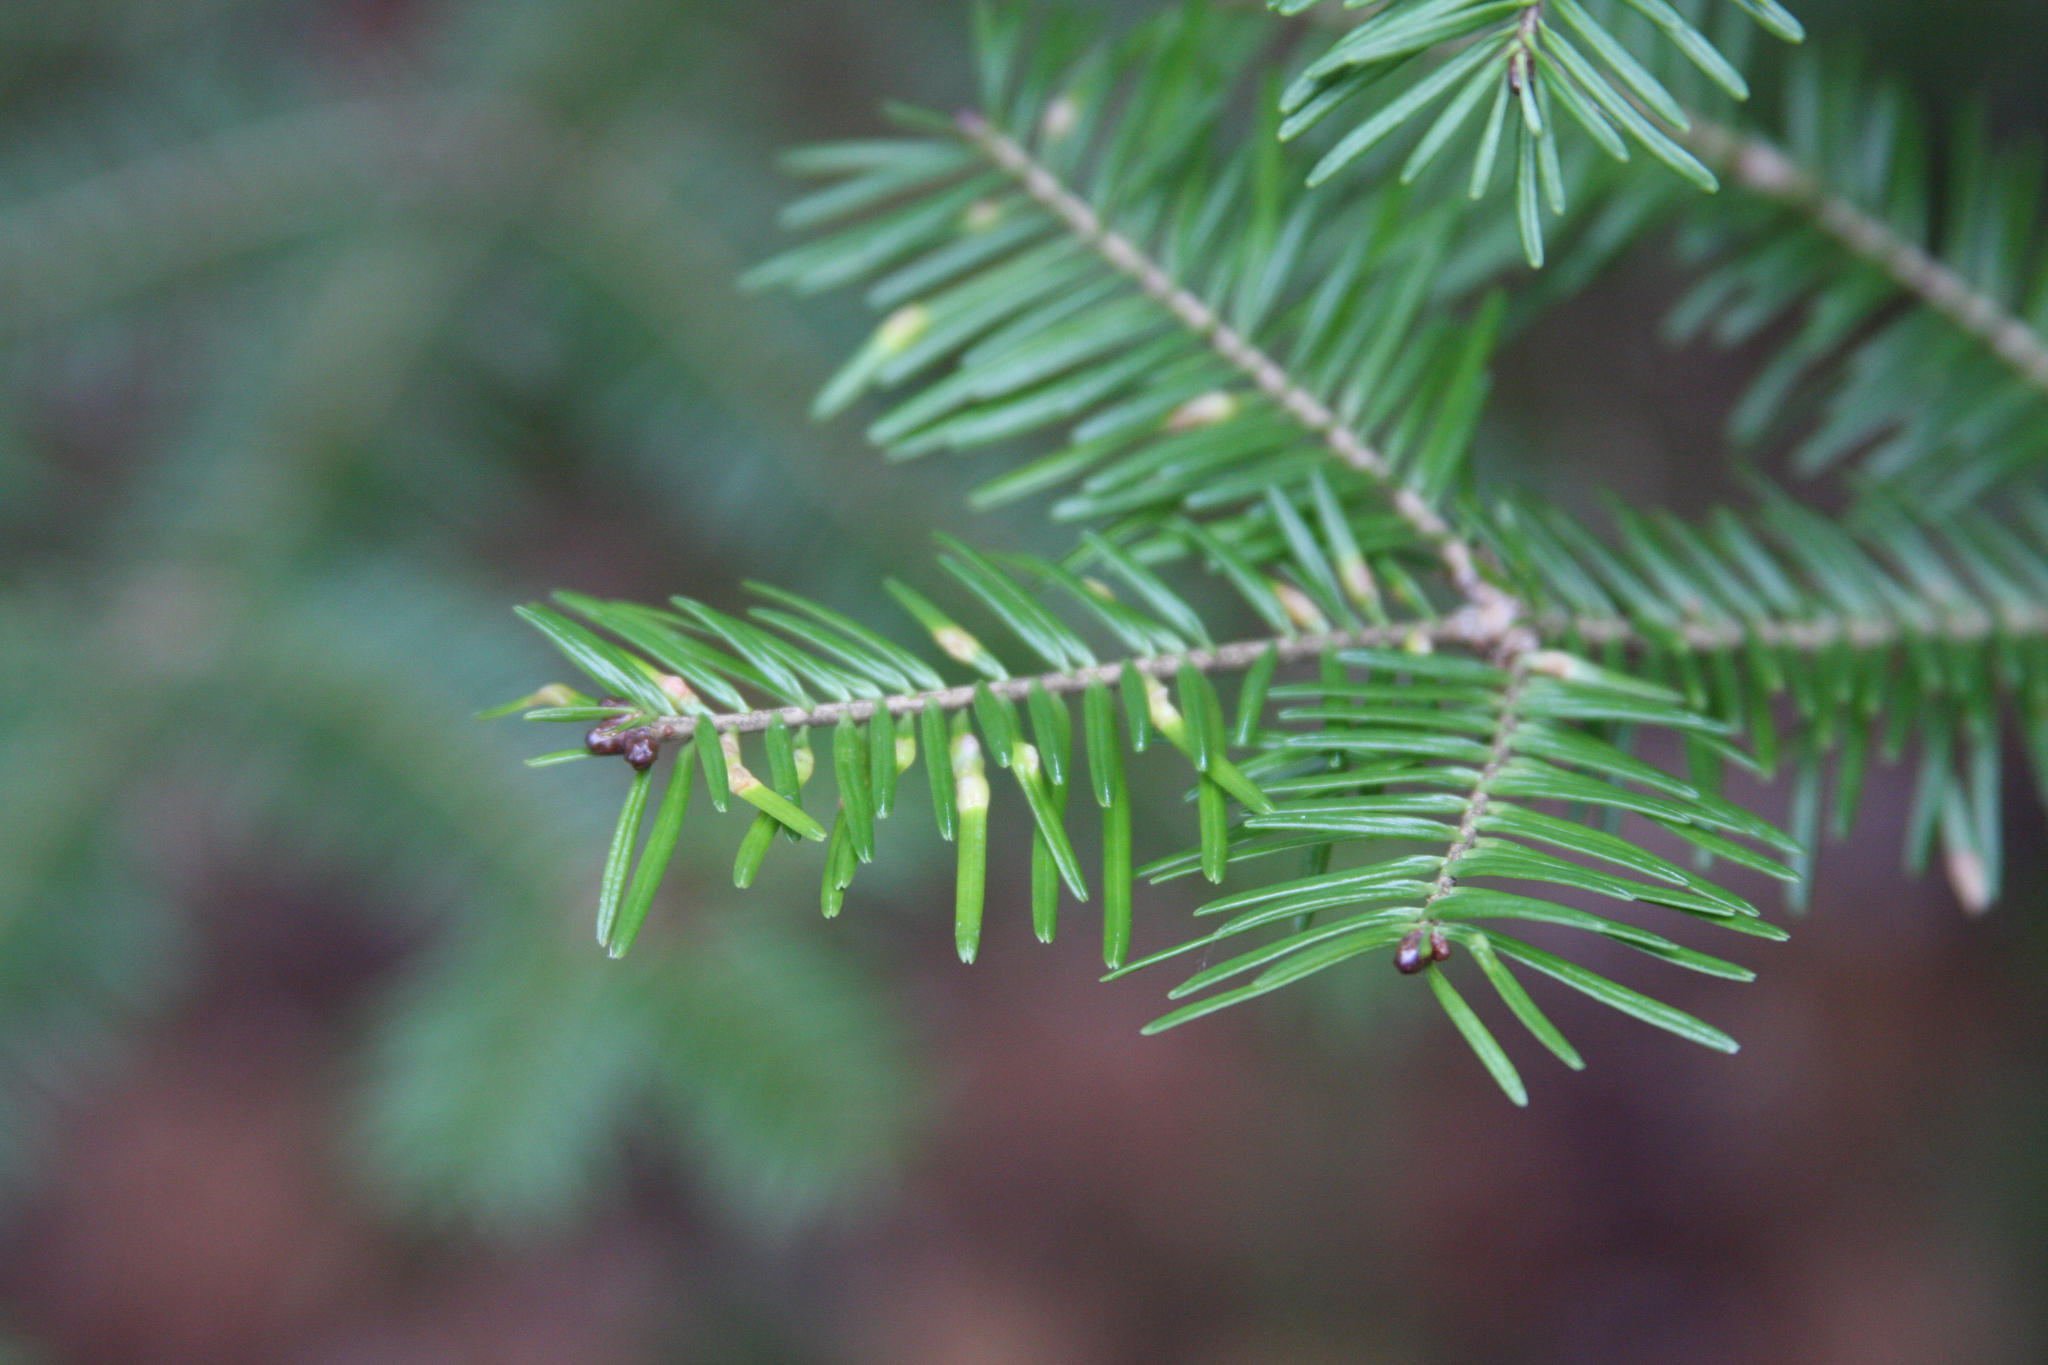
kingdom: Animalia
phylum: Arthropoda
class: Insecta
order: Diptera
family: Cecidomyiidae
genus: Paradiplosis
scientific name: Paradiplosis tumifex
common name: Gall midge
